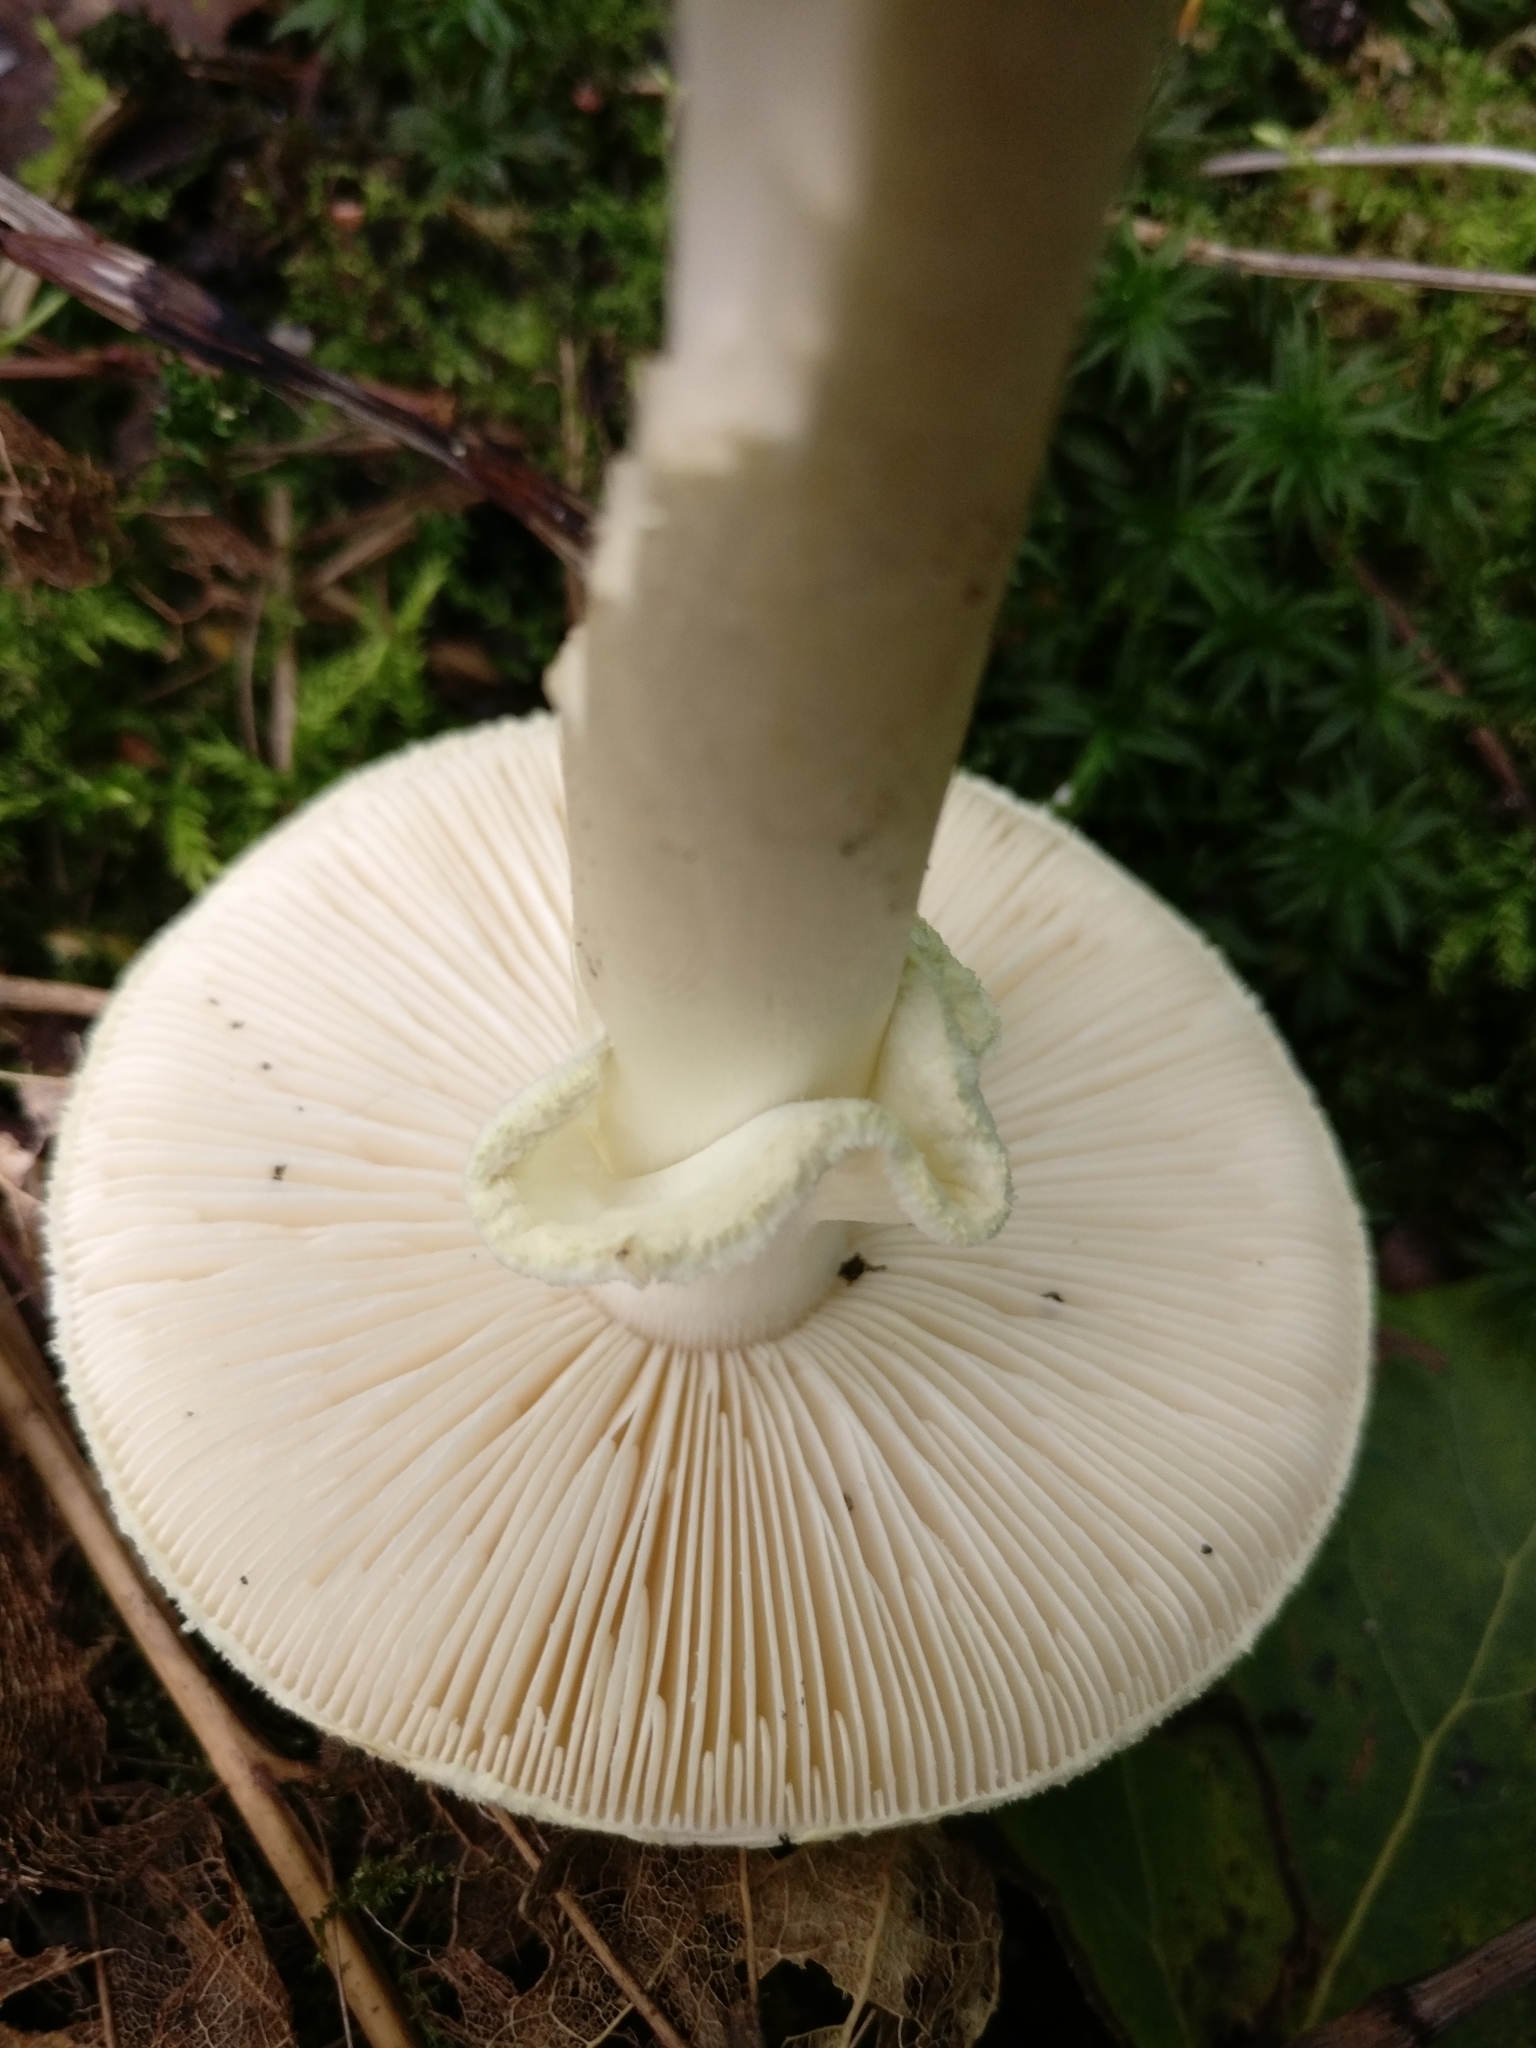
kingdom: Fungi
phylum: Basidiomycota
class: Agaricomycetes
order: Agaricales
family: Amanitaceae
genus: Amanita
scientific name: Amanita citrina
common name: False death-cap
